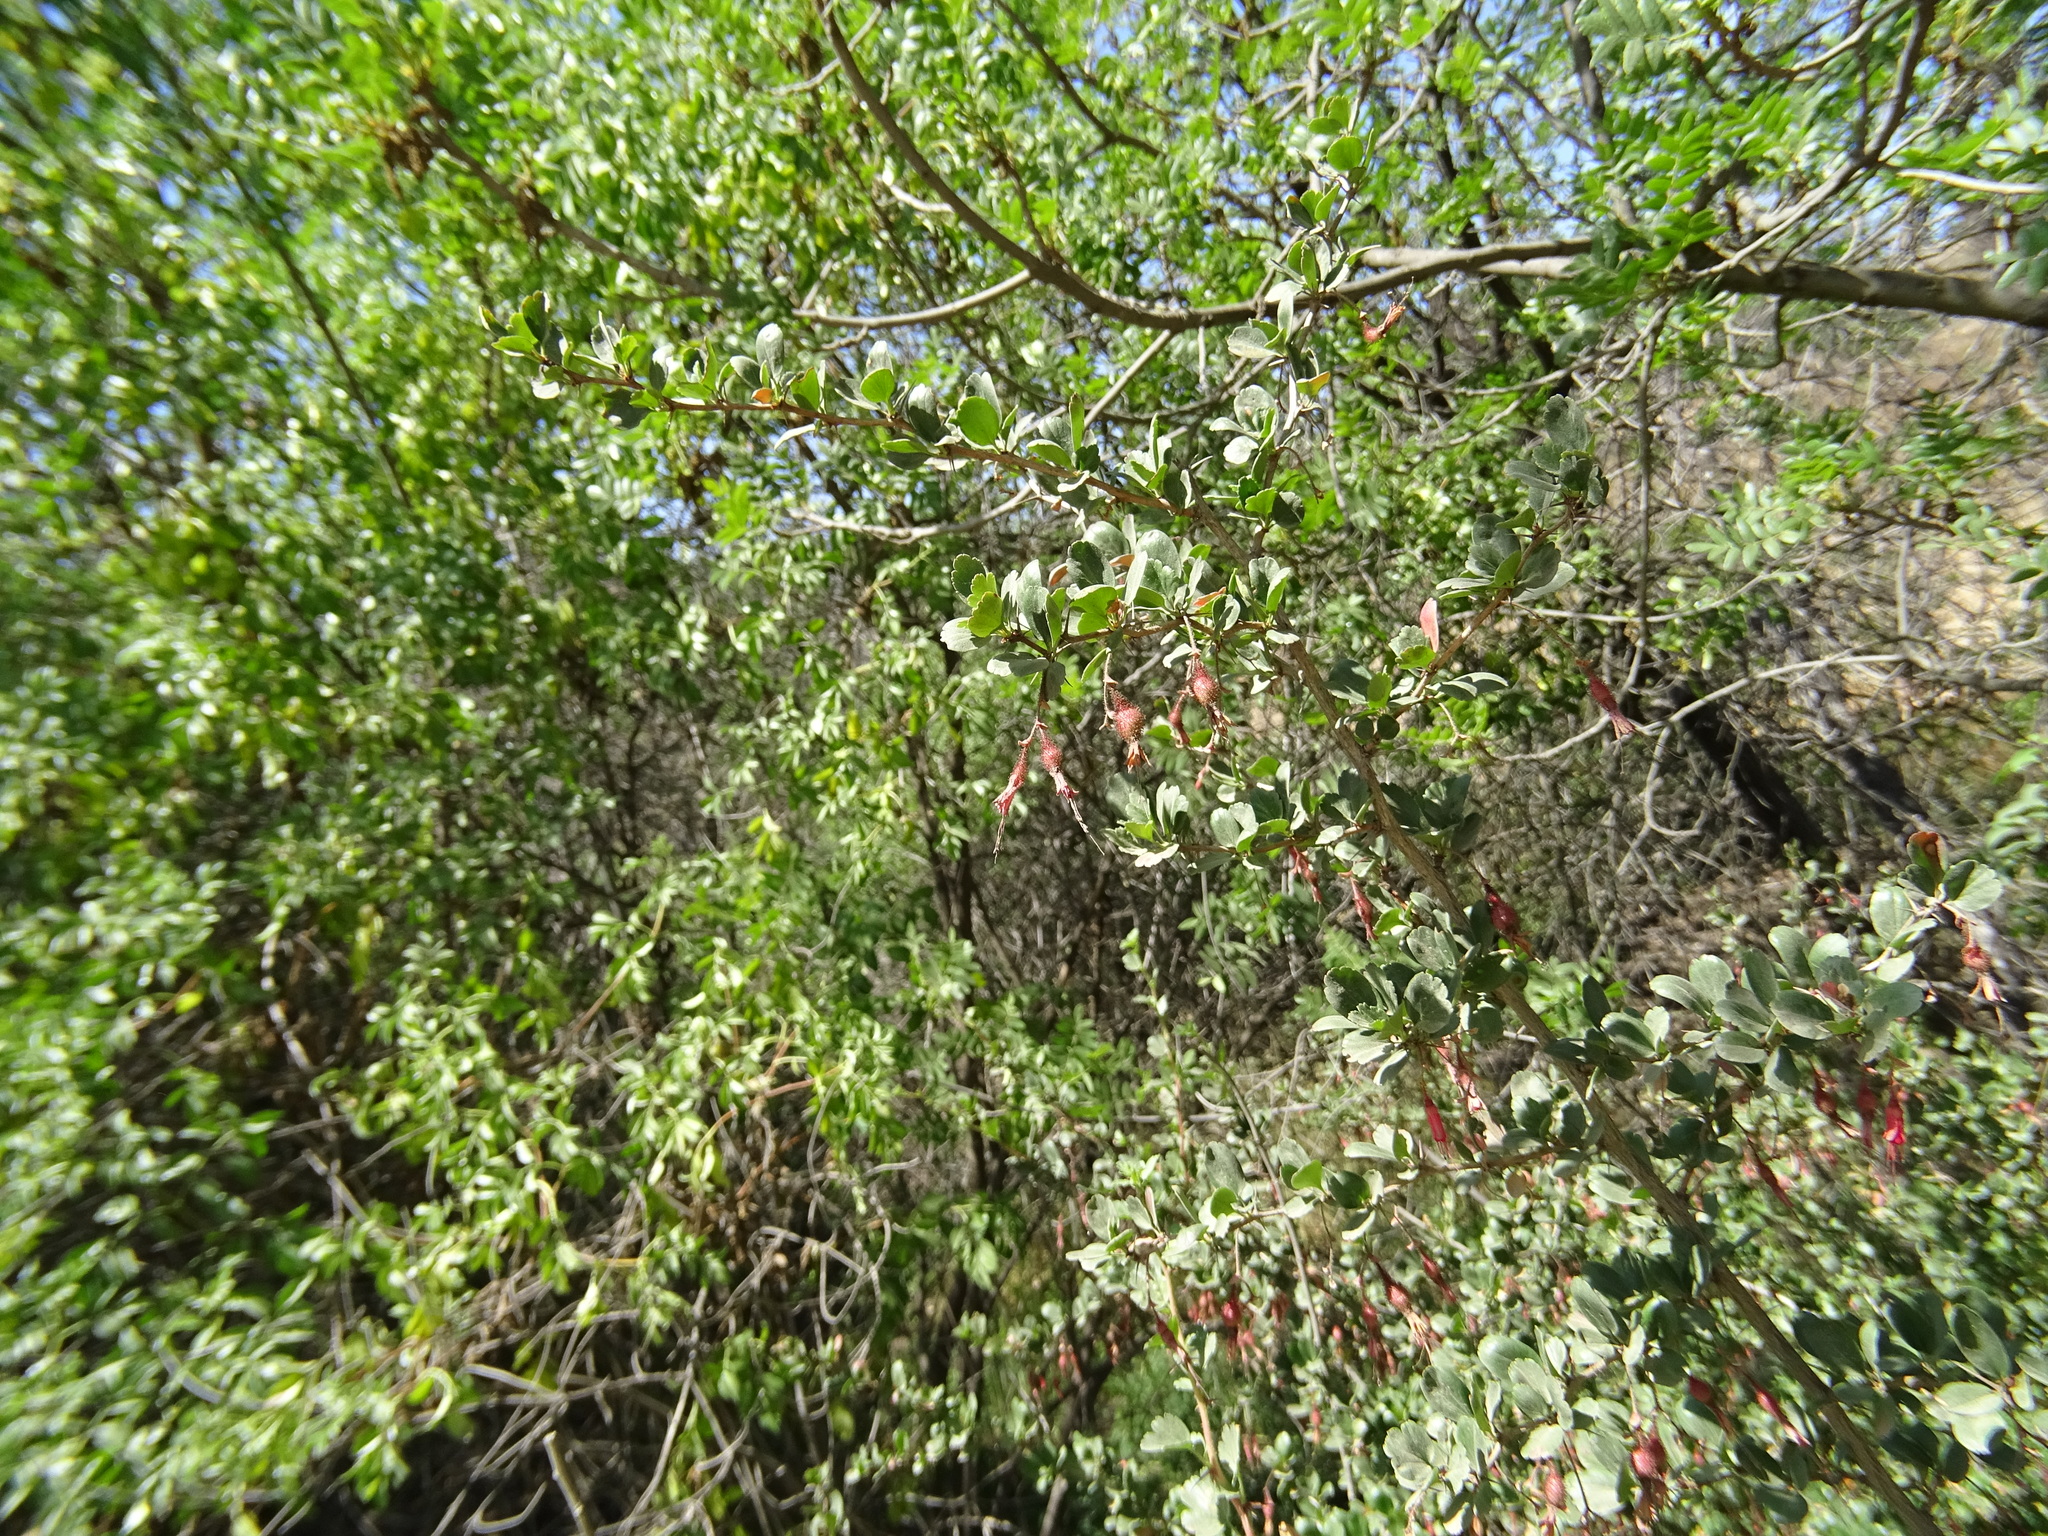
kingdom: Plantae
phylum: Tracheophyta
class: Magnoliopsida
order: Saxifragales
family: Grossulariaceae
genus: Ribes
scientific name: Ribes speciosum
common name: Fuchsia-flower gooseberry
